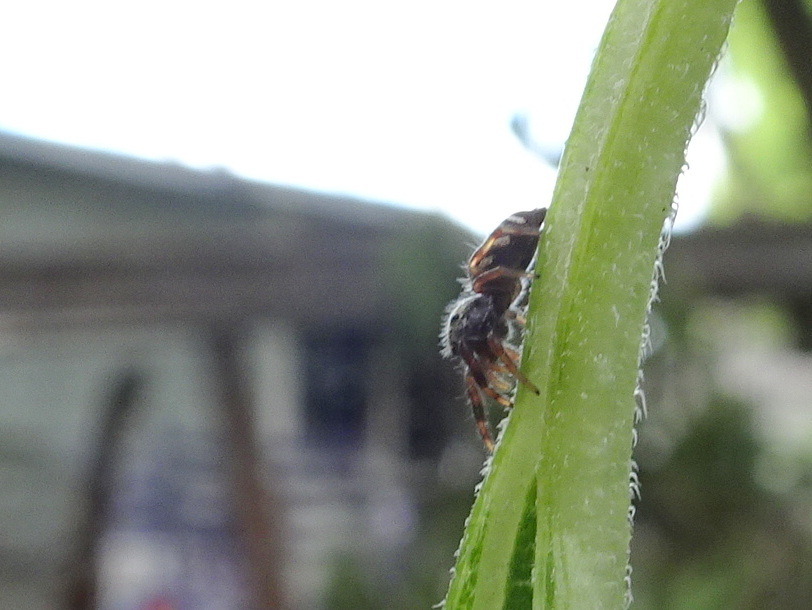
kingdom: Animalia
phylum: Arthropoda
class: Arachnida
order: Araneae
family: Salticidae
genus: Paraphidippus
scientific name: Paraphidippus aurantius
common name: Jumping spiders
